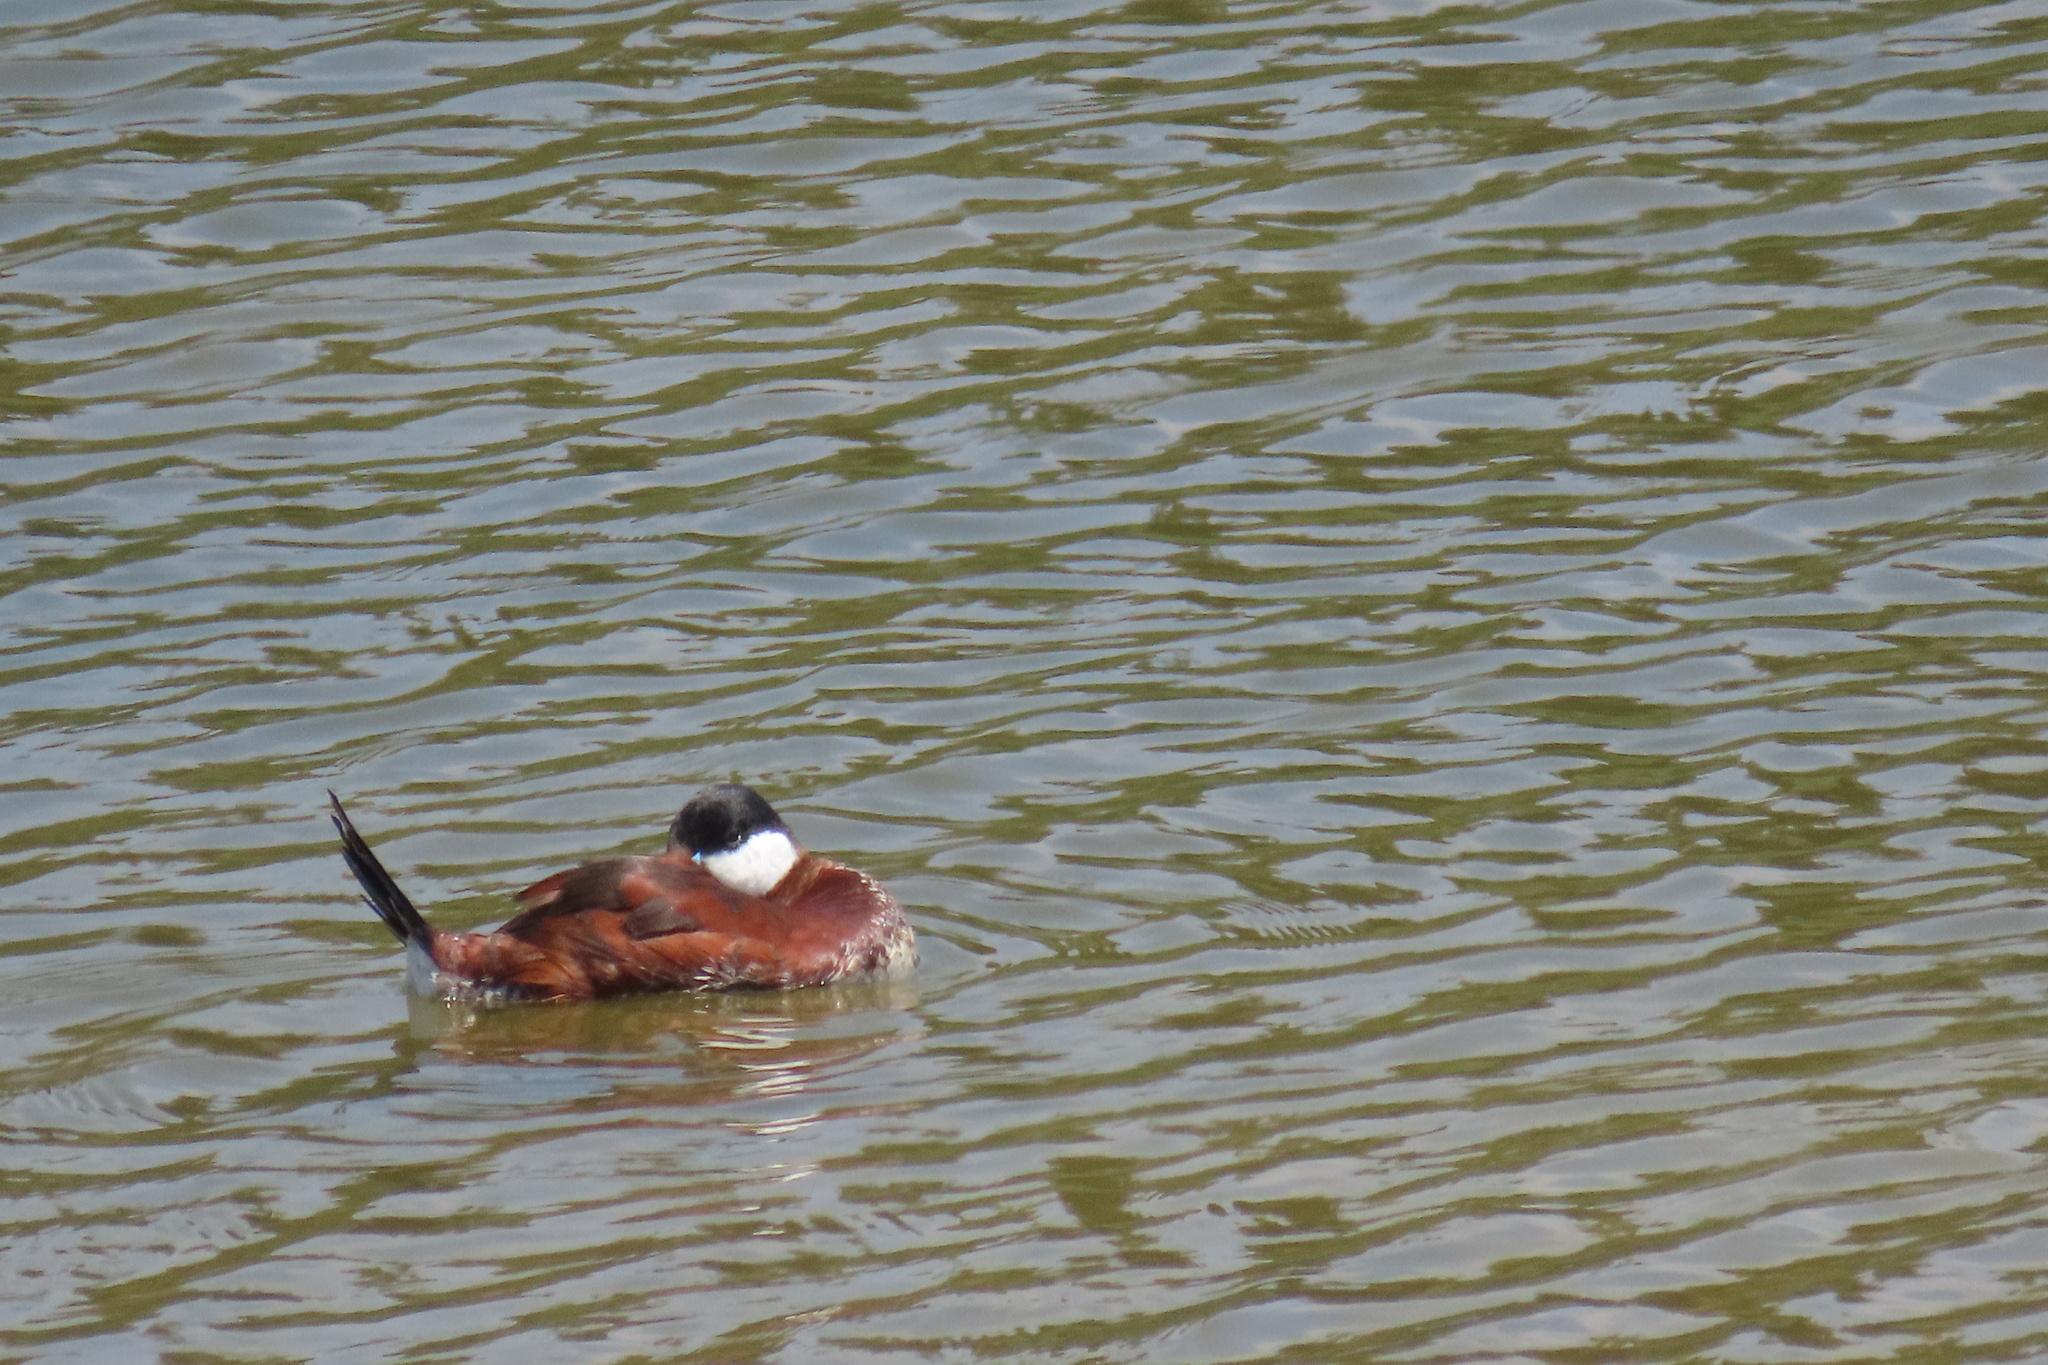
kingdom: Animalia
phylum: Chordata
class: Aves
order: Anseriformes
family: Anatidae
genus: Oxyura
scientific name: Oxyura jamaicensis
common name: Ruddy duck
